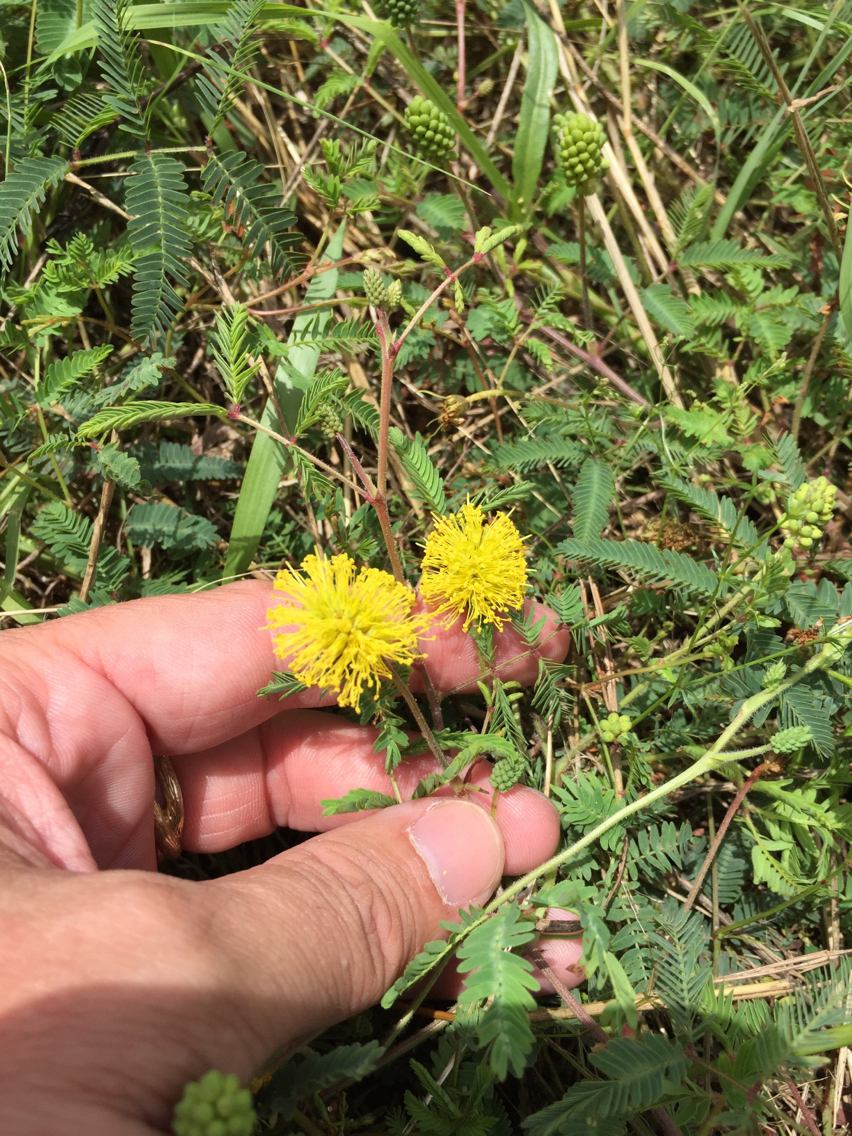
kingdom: Plantae
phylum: Tracheophyta
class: Magnoliopsida
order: Fabales
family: Fabaceae
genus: Neptunia
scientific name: Neptunia lutea
